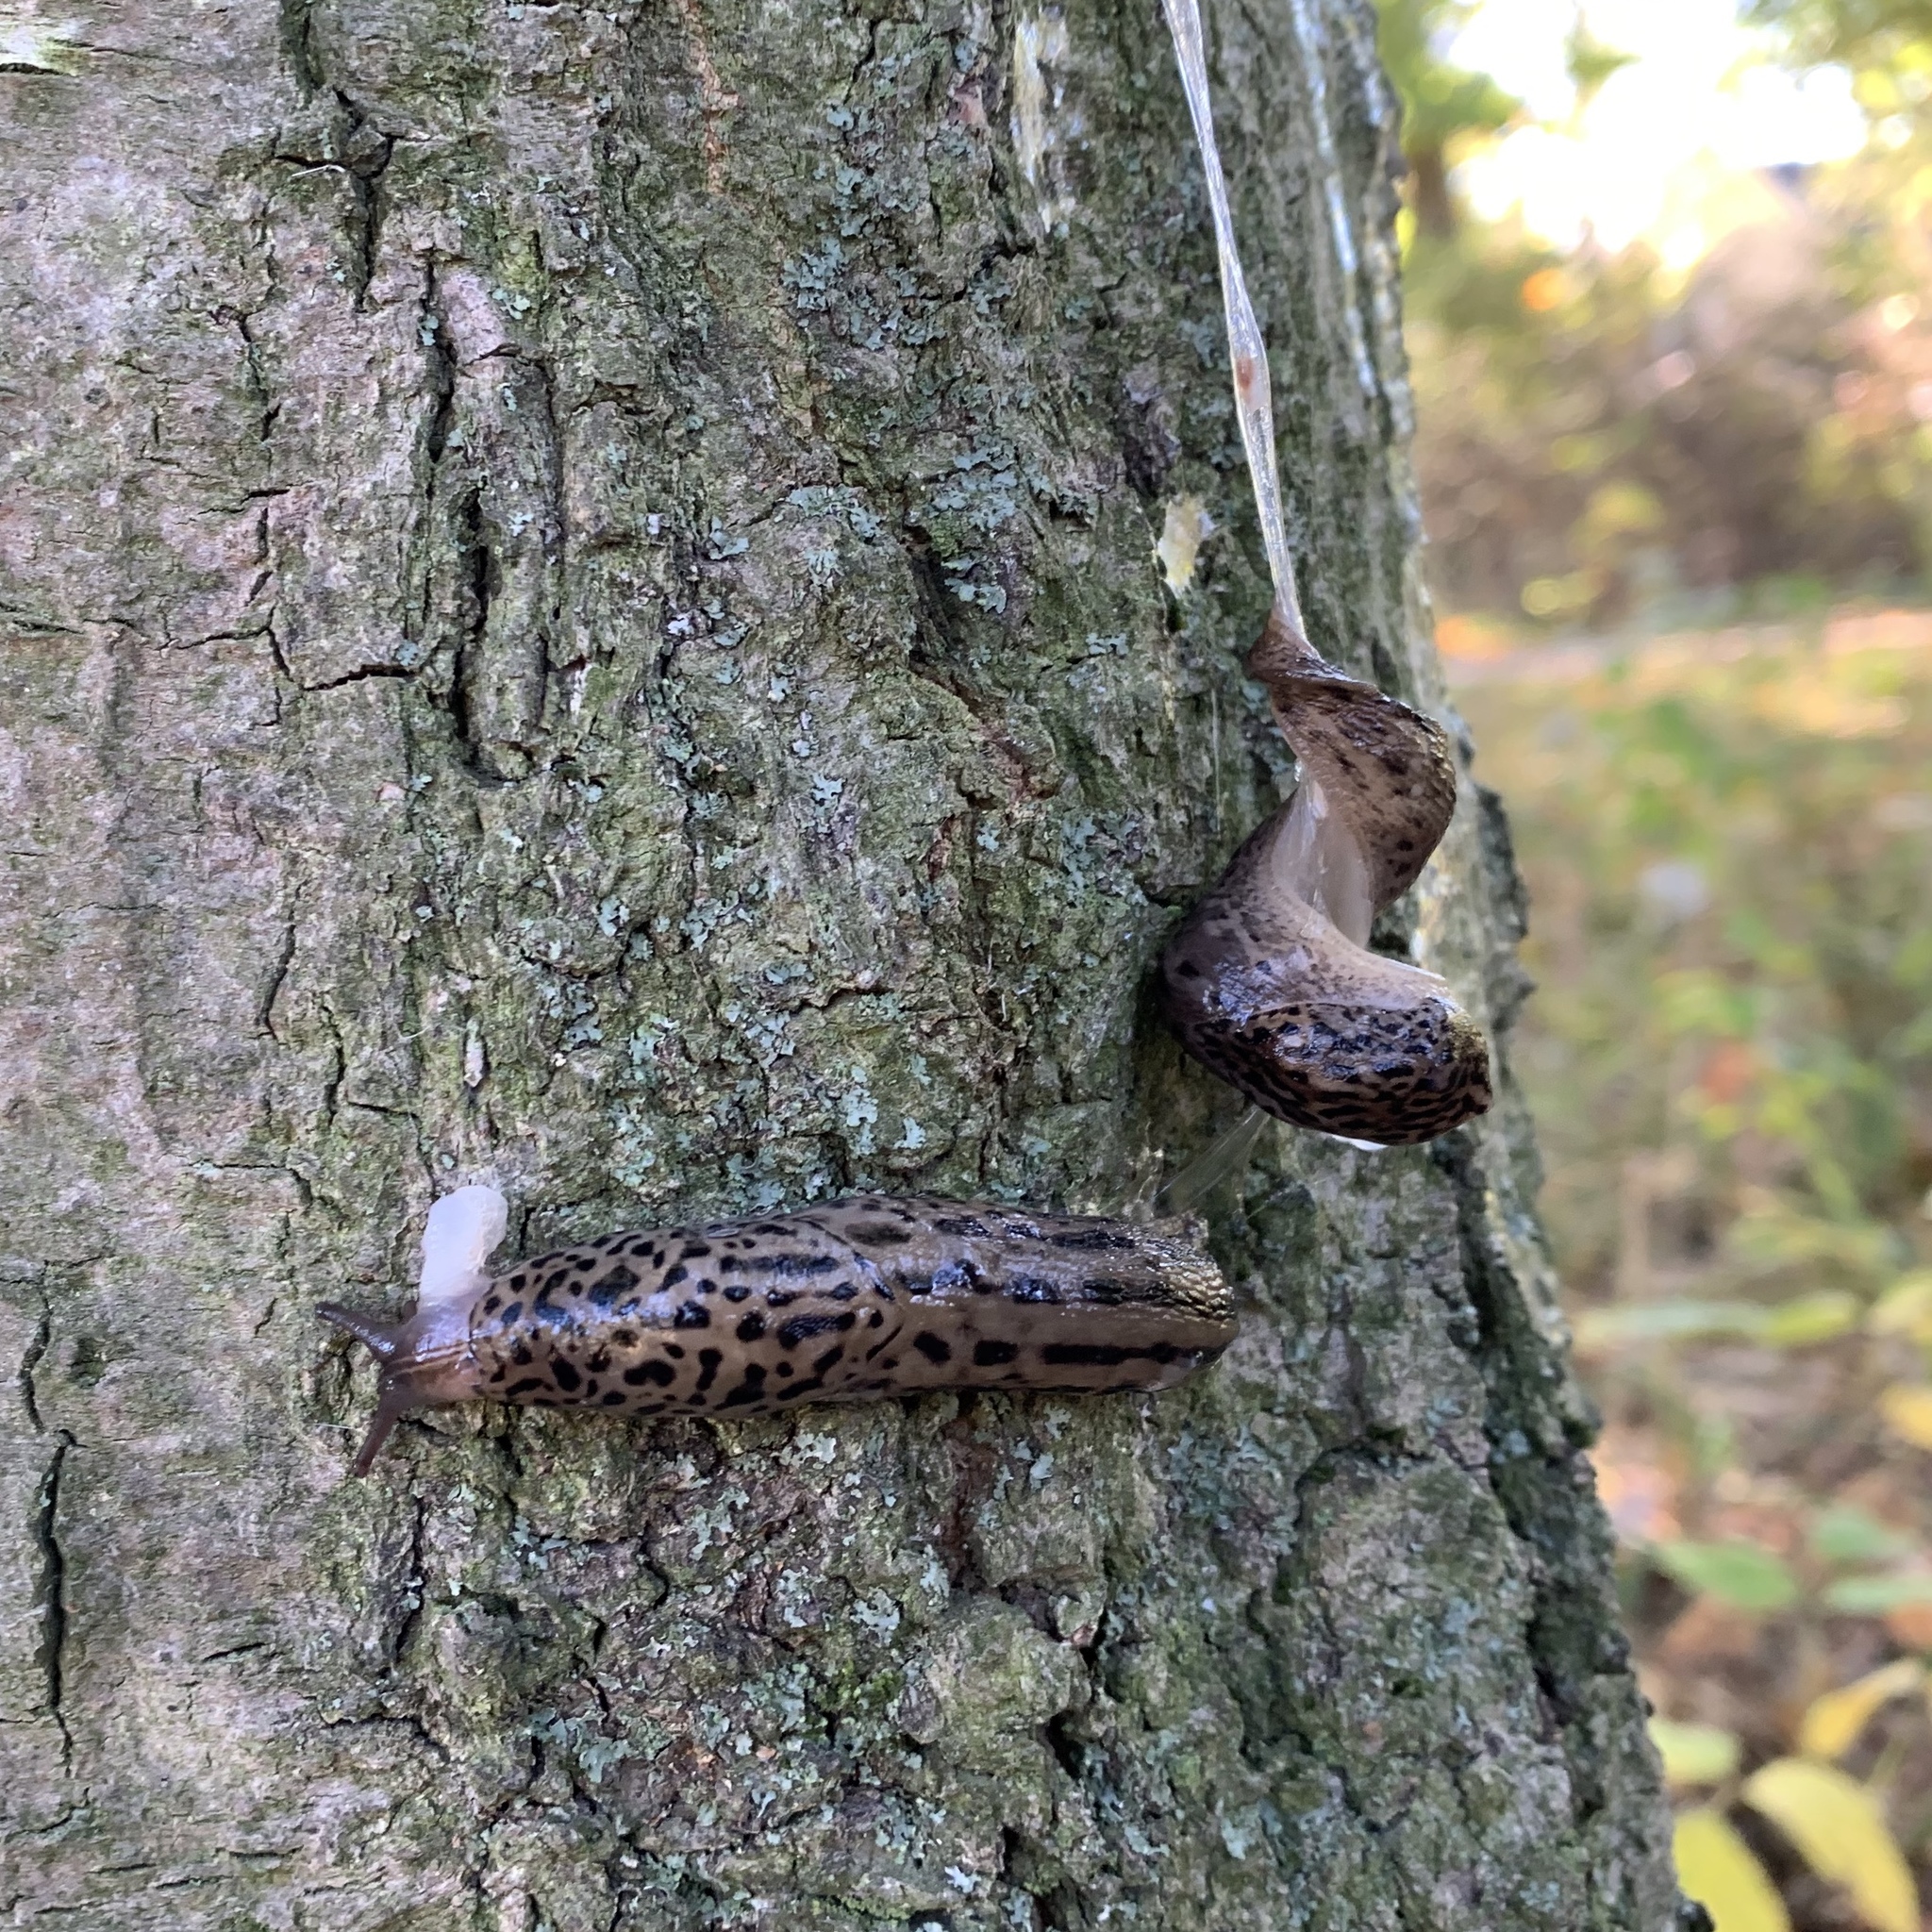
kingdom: Animalia
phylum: Mollusca
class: Gastropoda
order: Stylommatophora
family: Limacidae
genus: Limax
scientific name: Limax maximus
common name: Great grey slug
